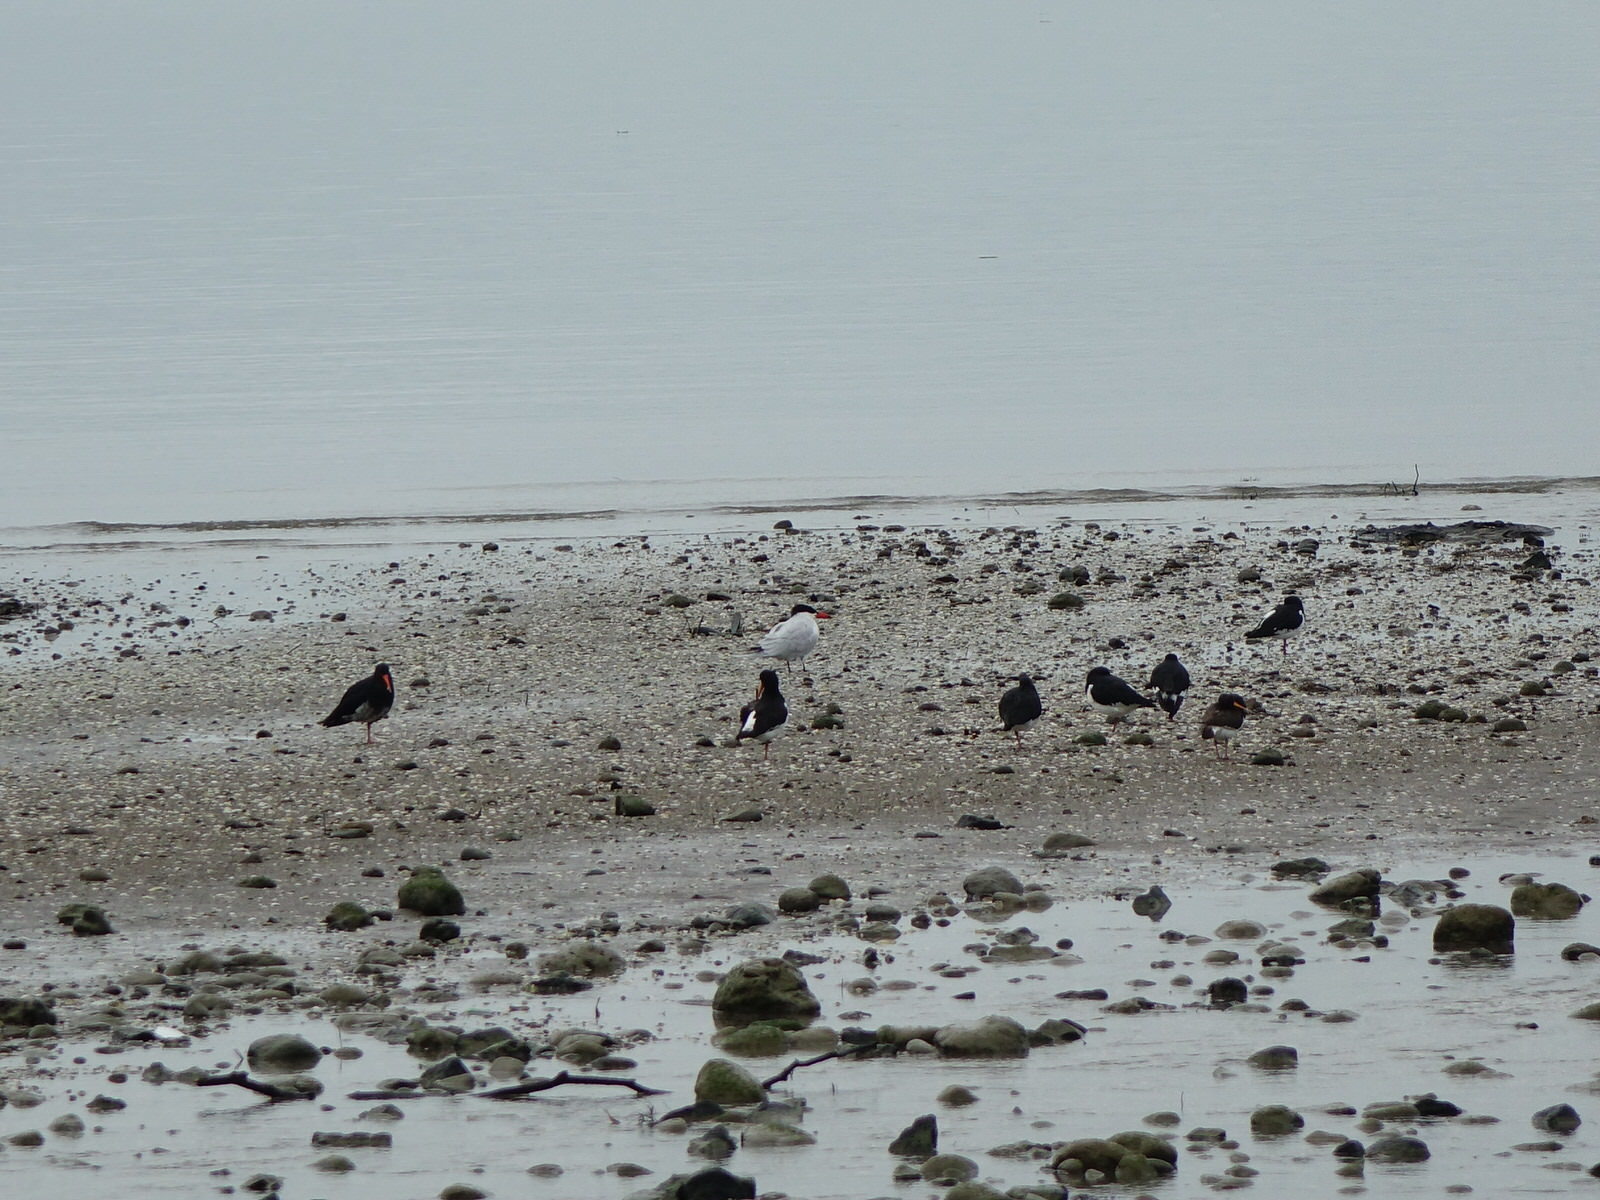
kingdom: Animalia
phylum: Chordata
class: Aves
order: Charadriiformes
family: Laridae
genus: Hydroprogne
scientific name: Hydroprogne caspia
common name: Caspian tern
